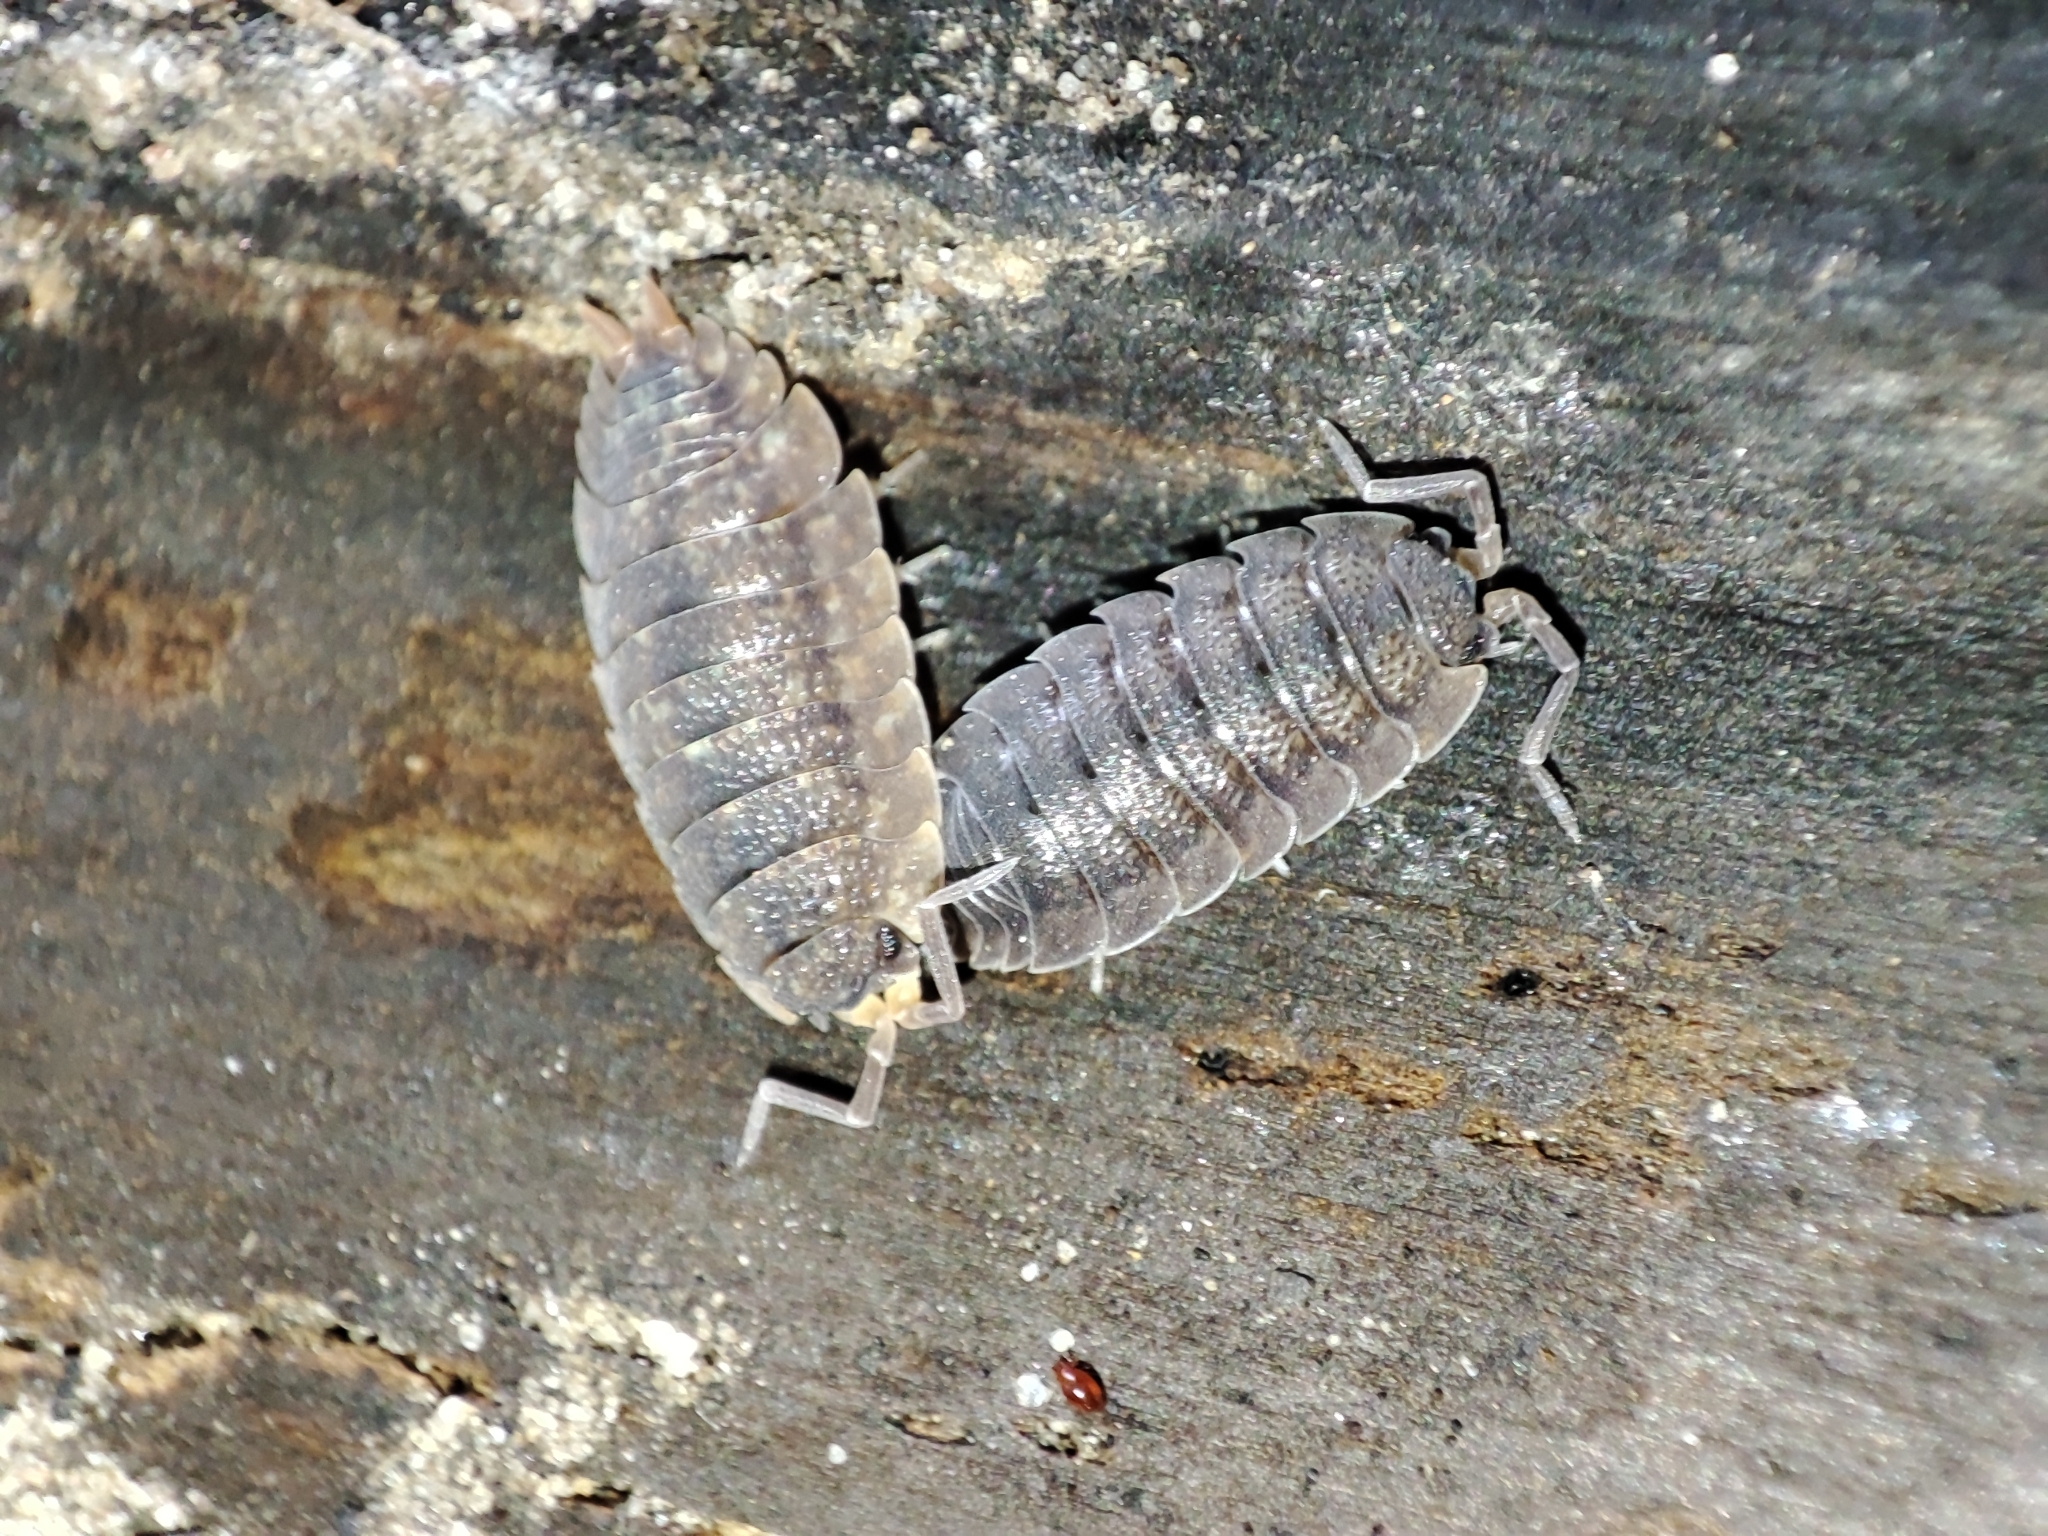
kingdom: Animalia
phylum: Arthropoda
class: Malacostraca
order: Isopoda
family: Porcellionidae
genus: Porcellio
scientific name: Porcellio scaber
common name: Common rough woodlouse
